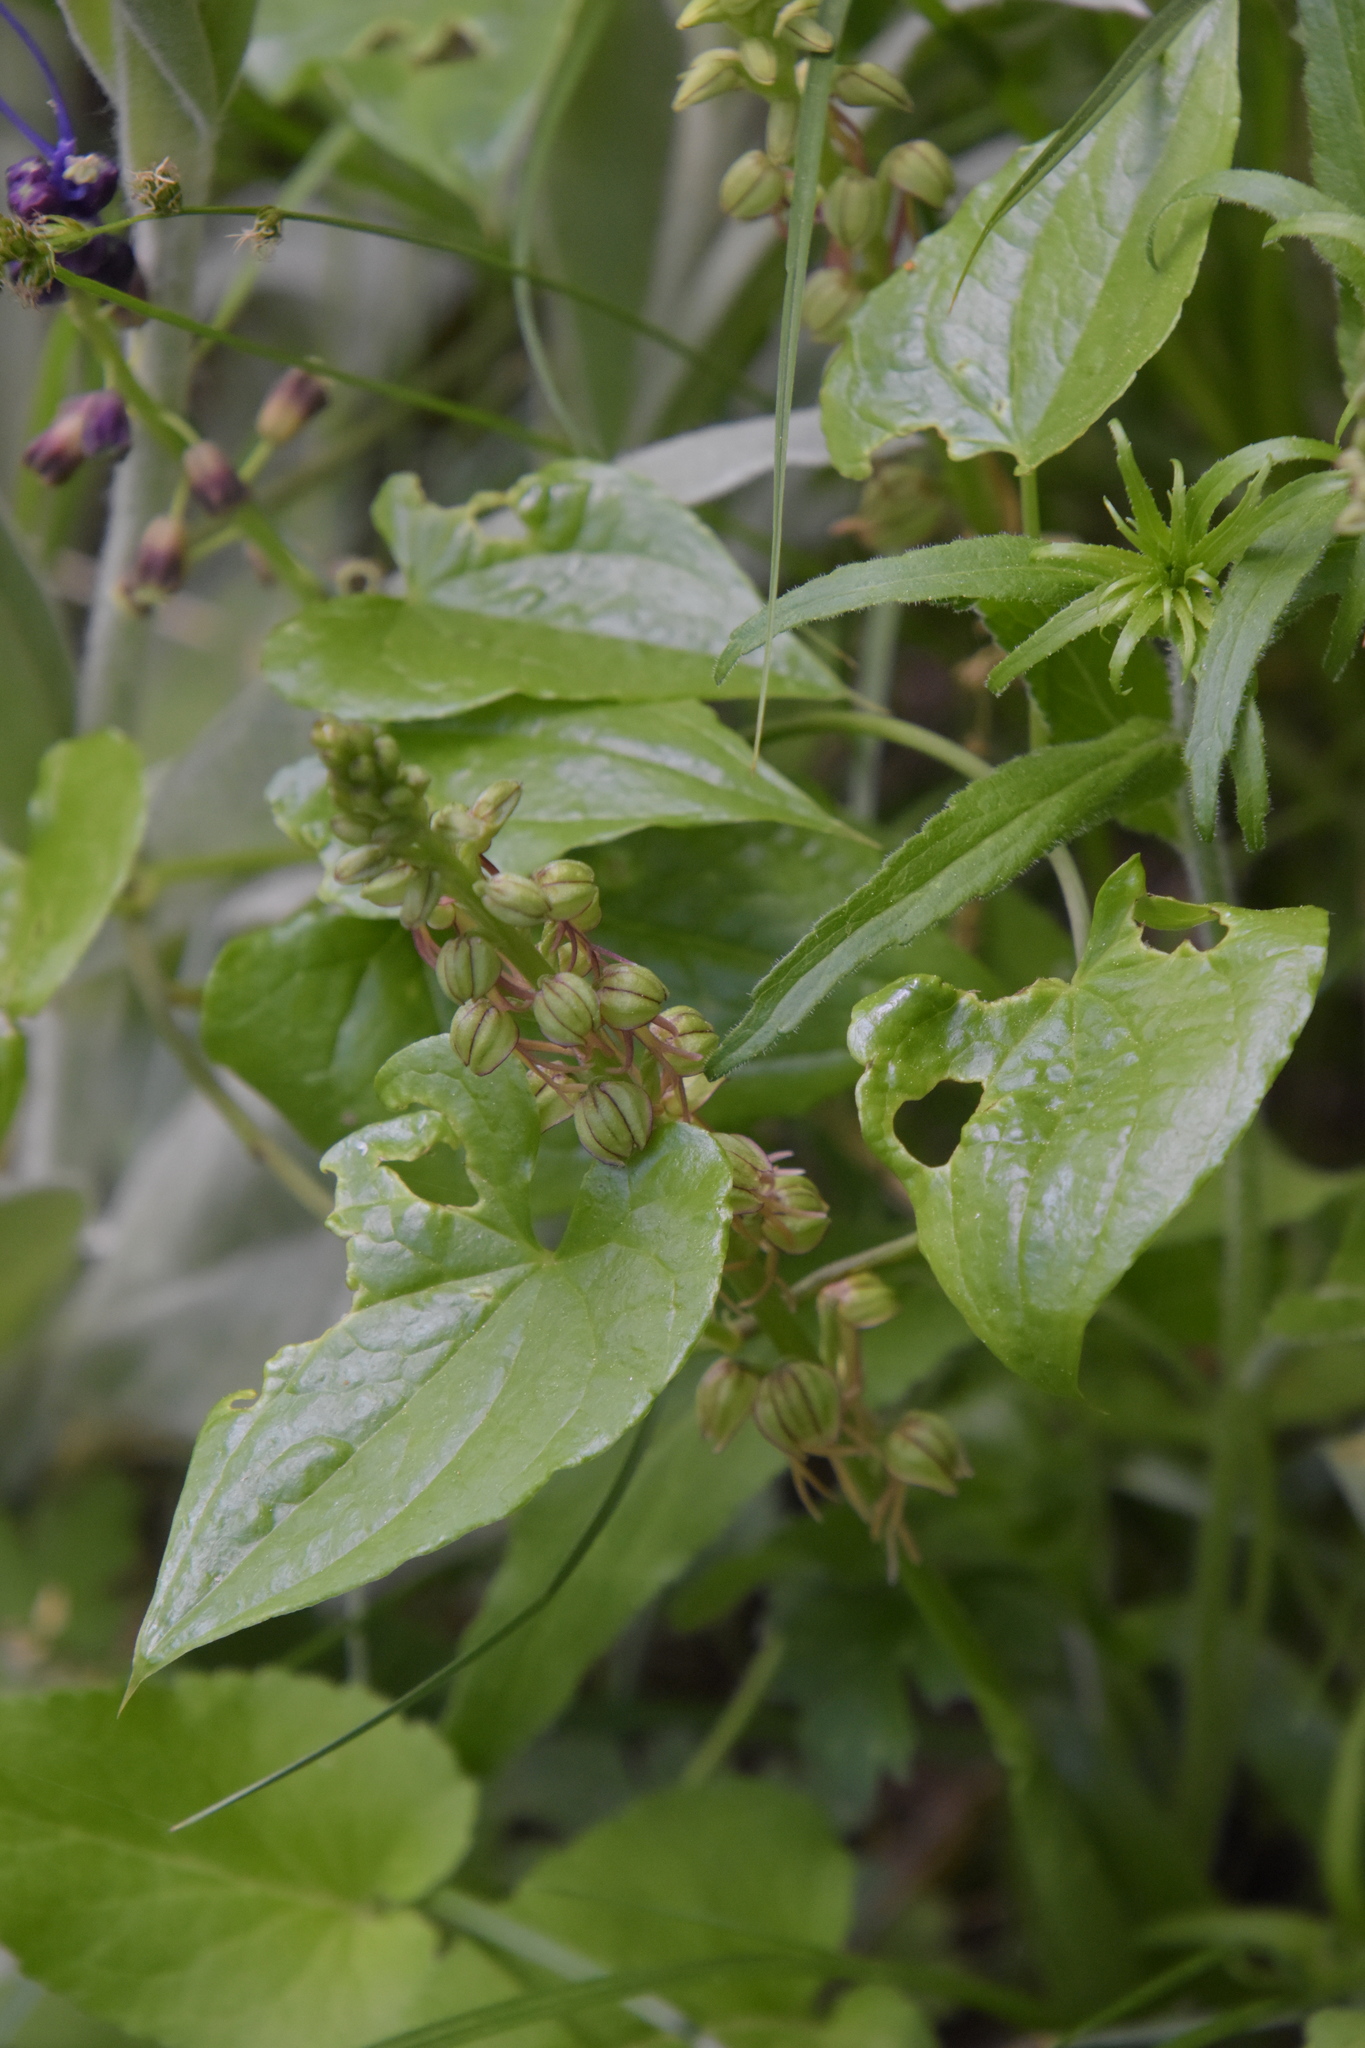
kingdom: Plantae
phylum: Tracheophyta
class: Liliopsida
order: Asparagales
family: Orchidaceae
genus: Orchis
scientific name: Orchis anthropophora
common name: Man orchid
